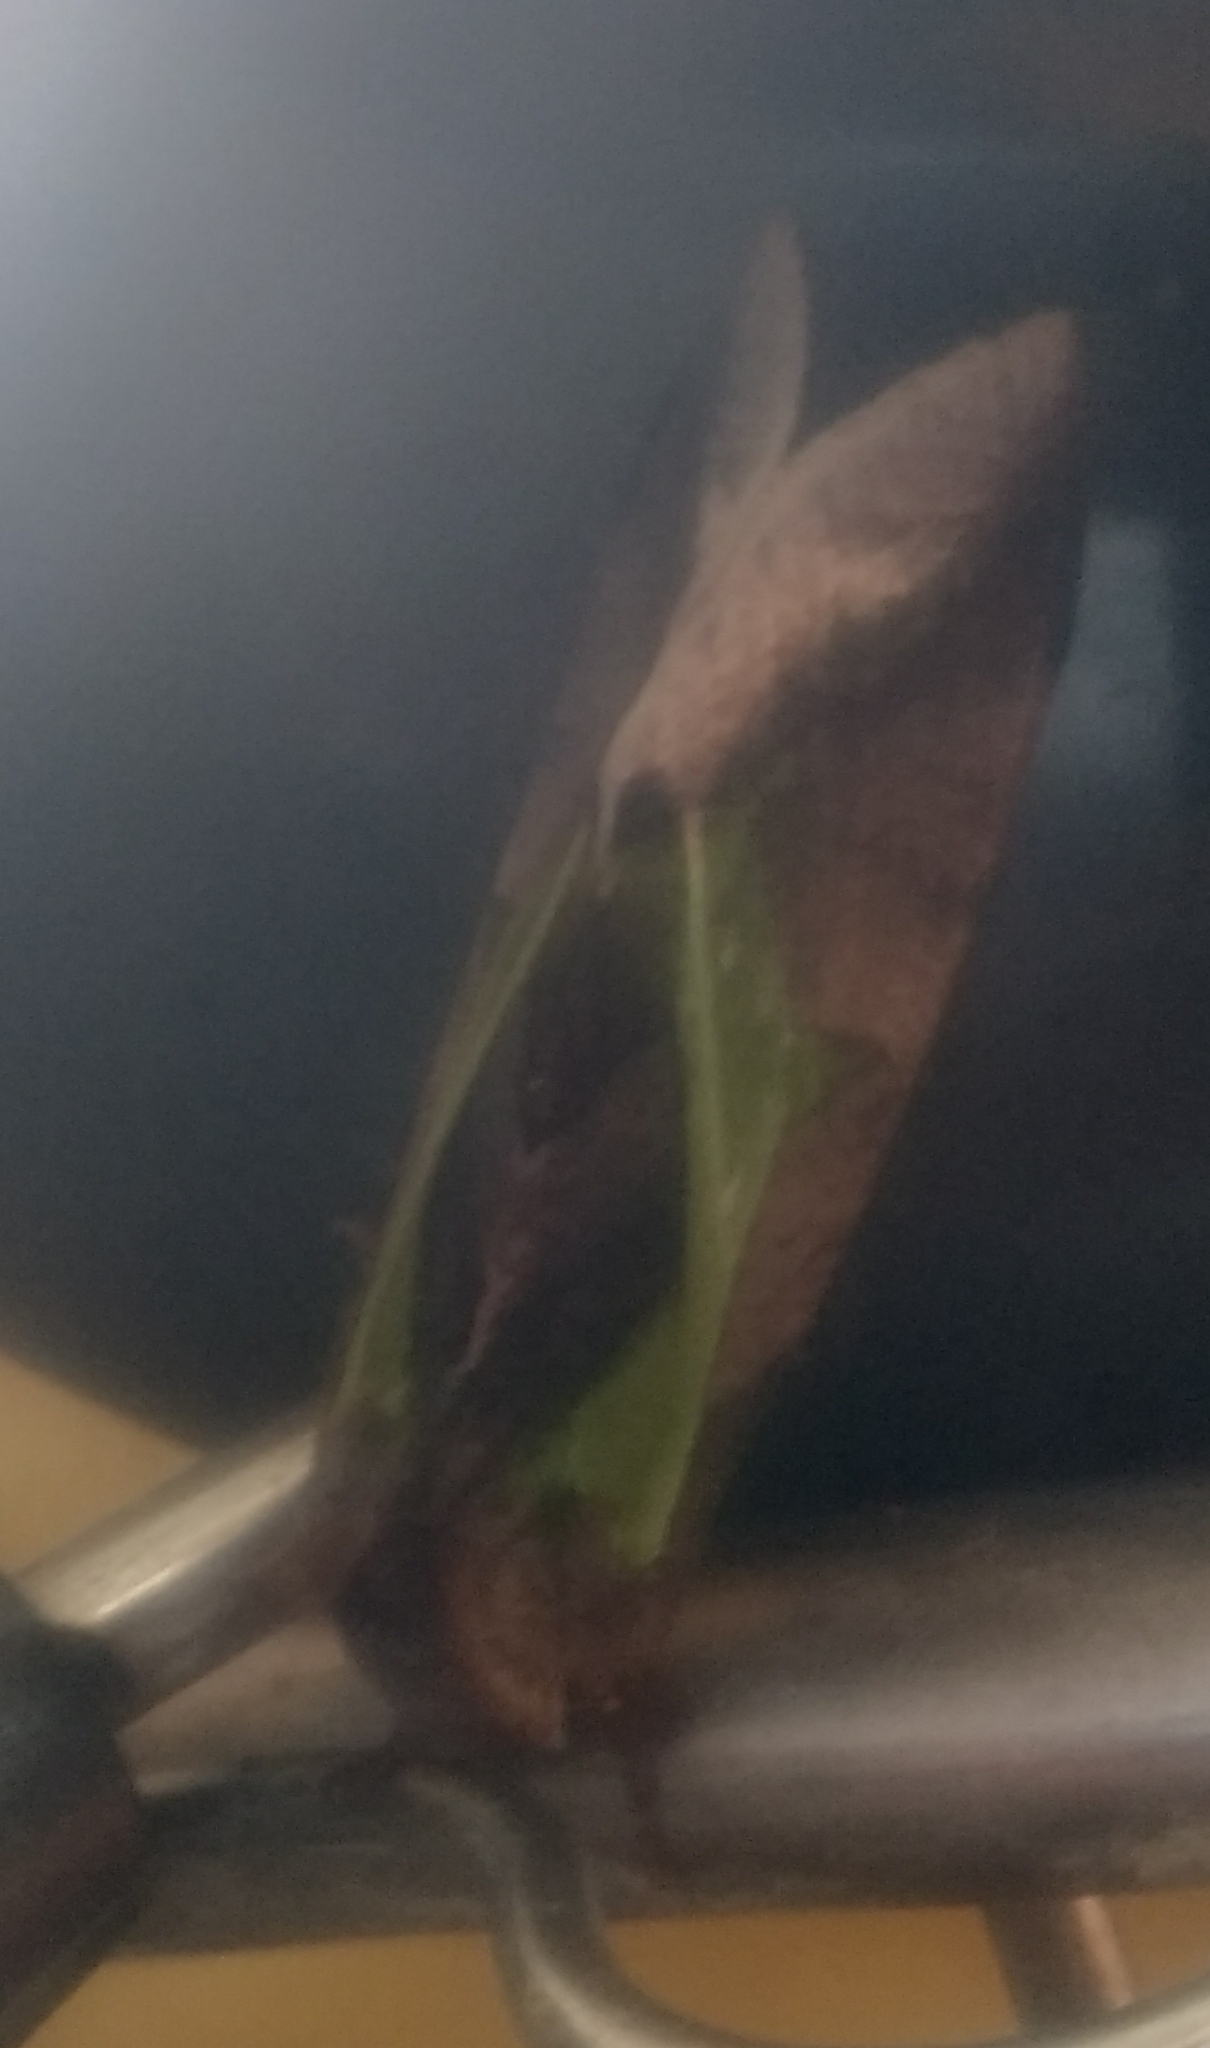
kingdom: Animalia
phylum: Arthropoda
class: Insecta
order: Lepidoptera
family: Erebidae
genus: Eudocima
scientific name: Eudocima homaena
